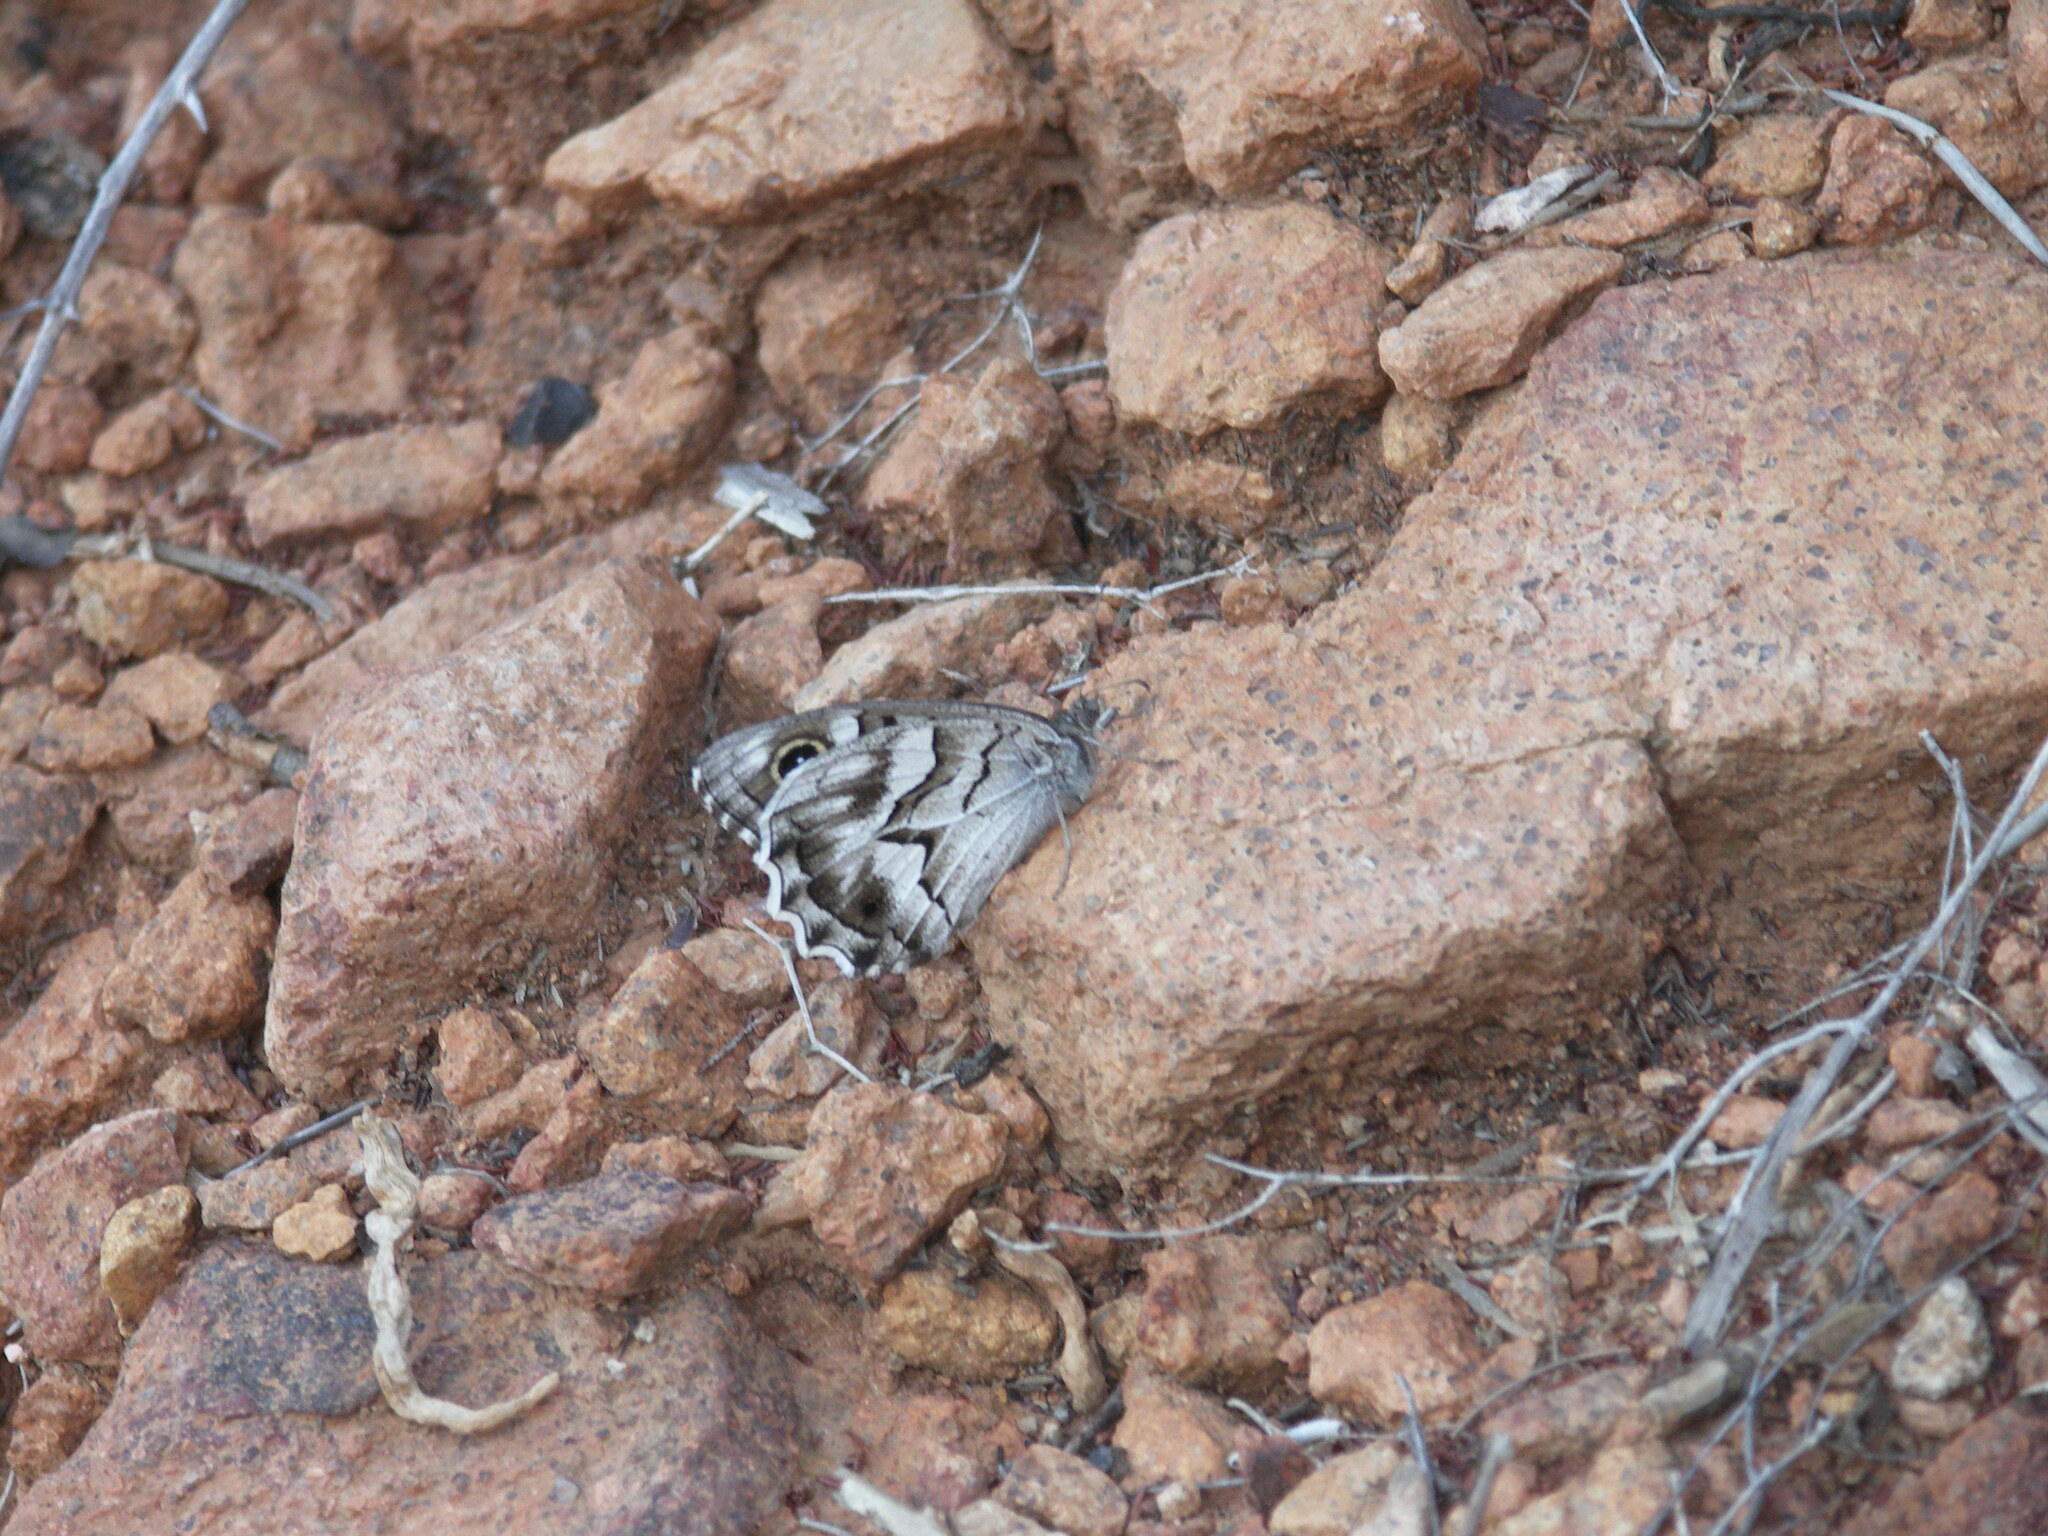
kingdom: Animalia
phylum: Arthropoda
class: Insecta
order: Lepidoptera
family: Nymphalidae
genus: Hipparchia
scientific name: Hipparchia fidia
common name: Striped grayling
